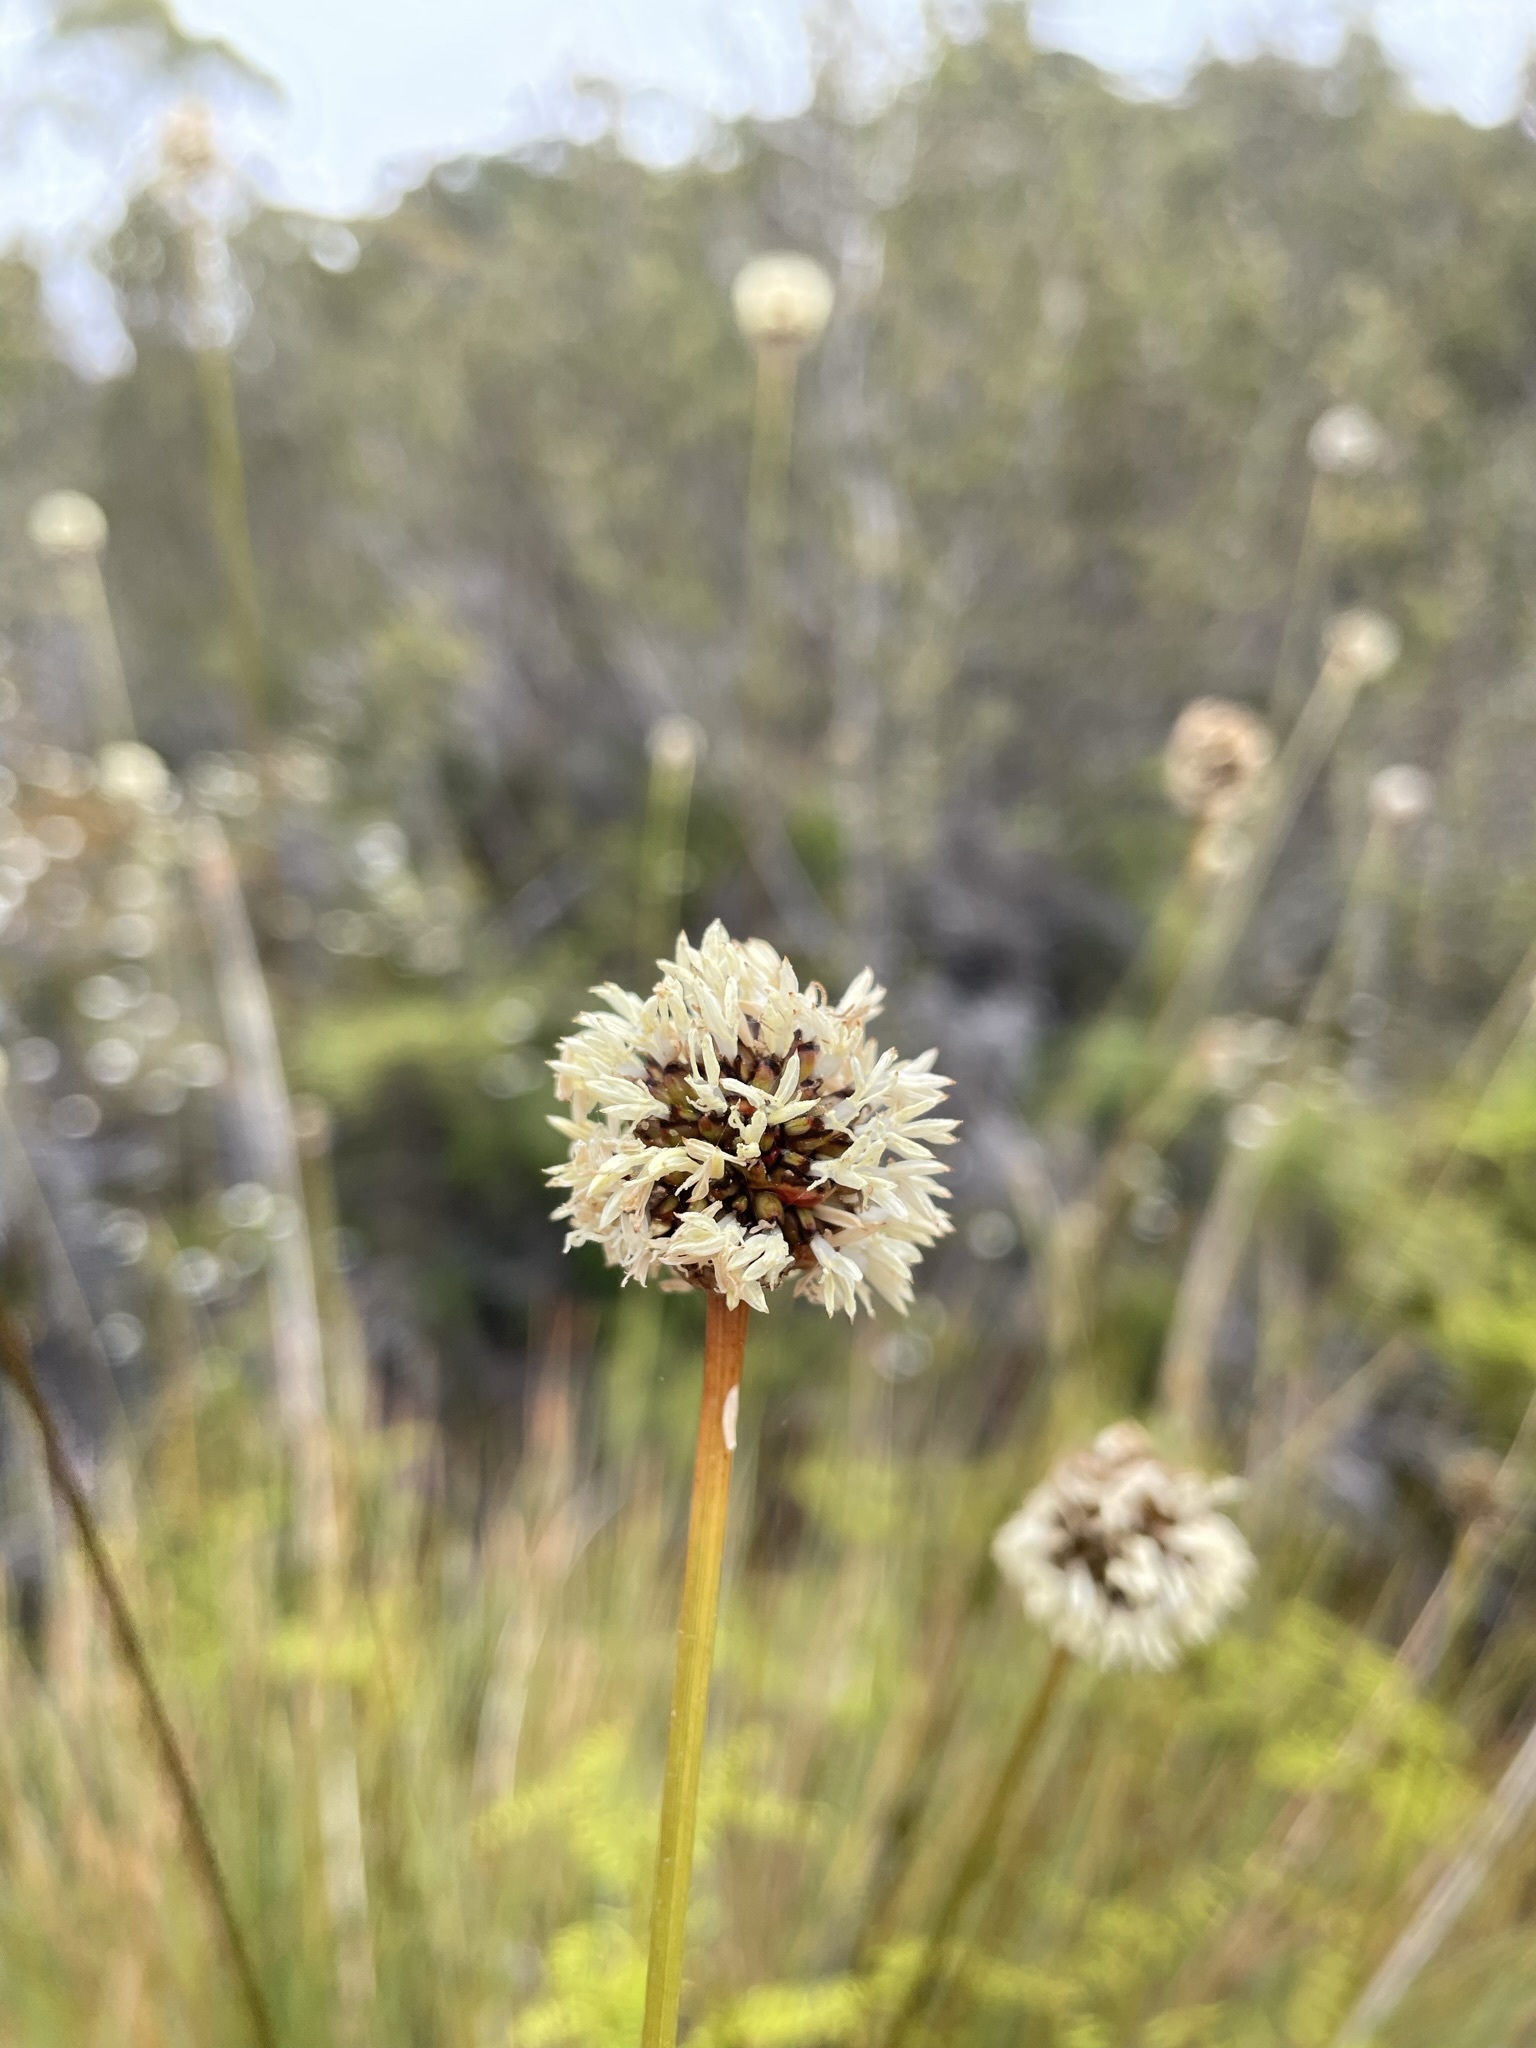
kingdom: Plantae
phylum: Tracheophyta
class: Liliopsida
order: Poales
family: Cyperaceae
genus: Gymnoschoenus
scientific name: Gymnoschoenus sphaerocephalus
